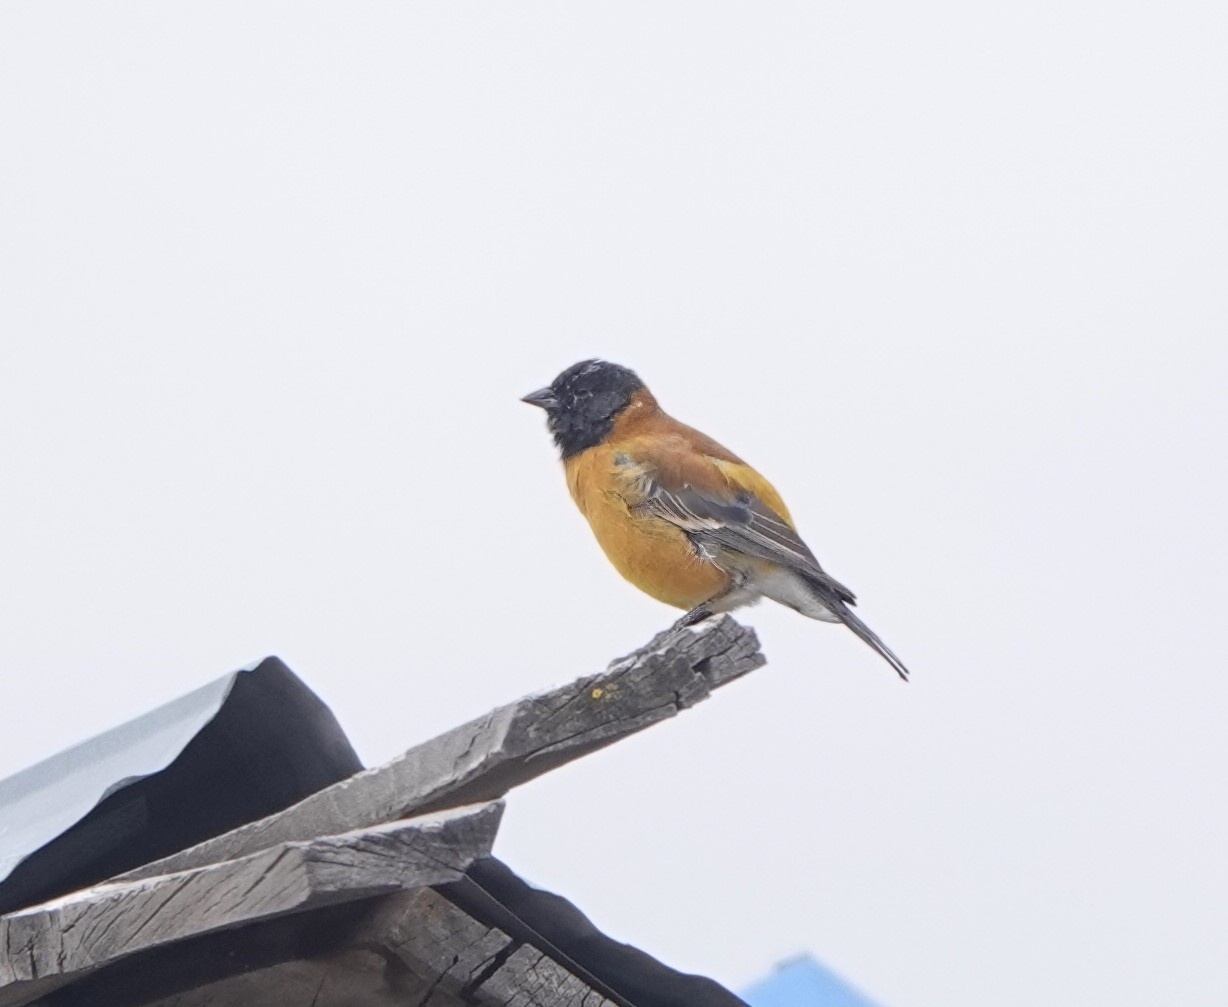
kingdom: Animalia
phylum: Chordata
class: Aves
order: Passeriformes
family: Thraupidae
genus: Phrygilus
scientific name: Phrygilus atriceps
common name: Black-hooded sierra finch
